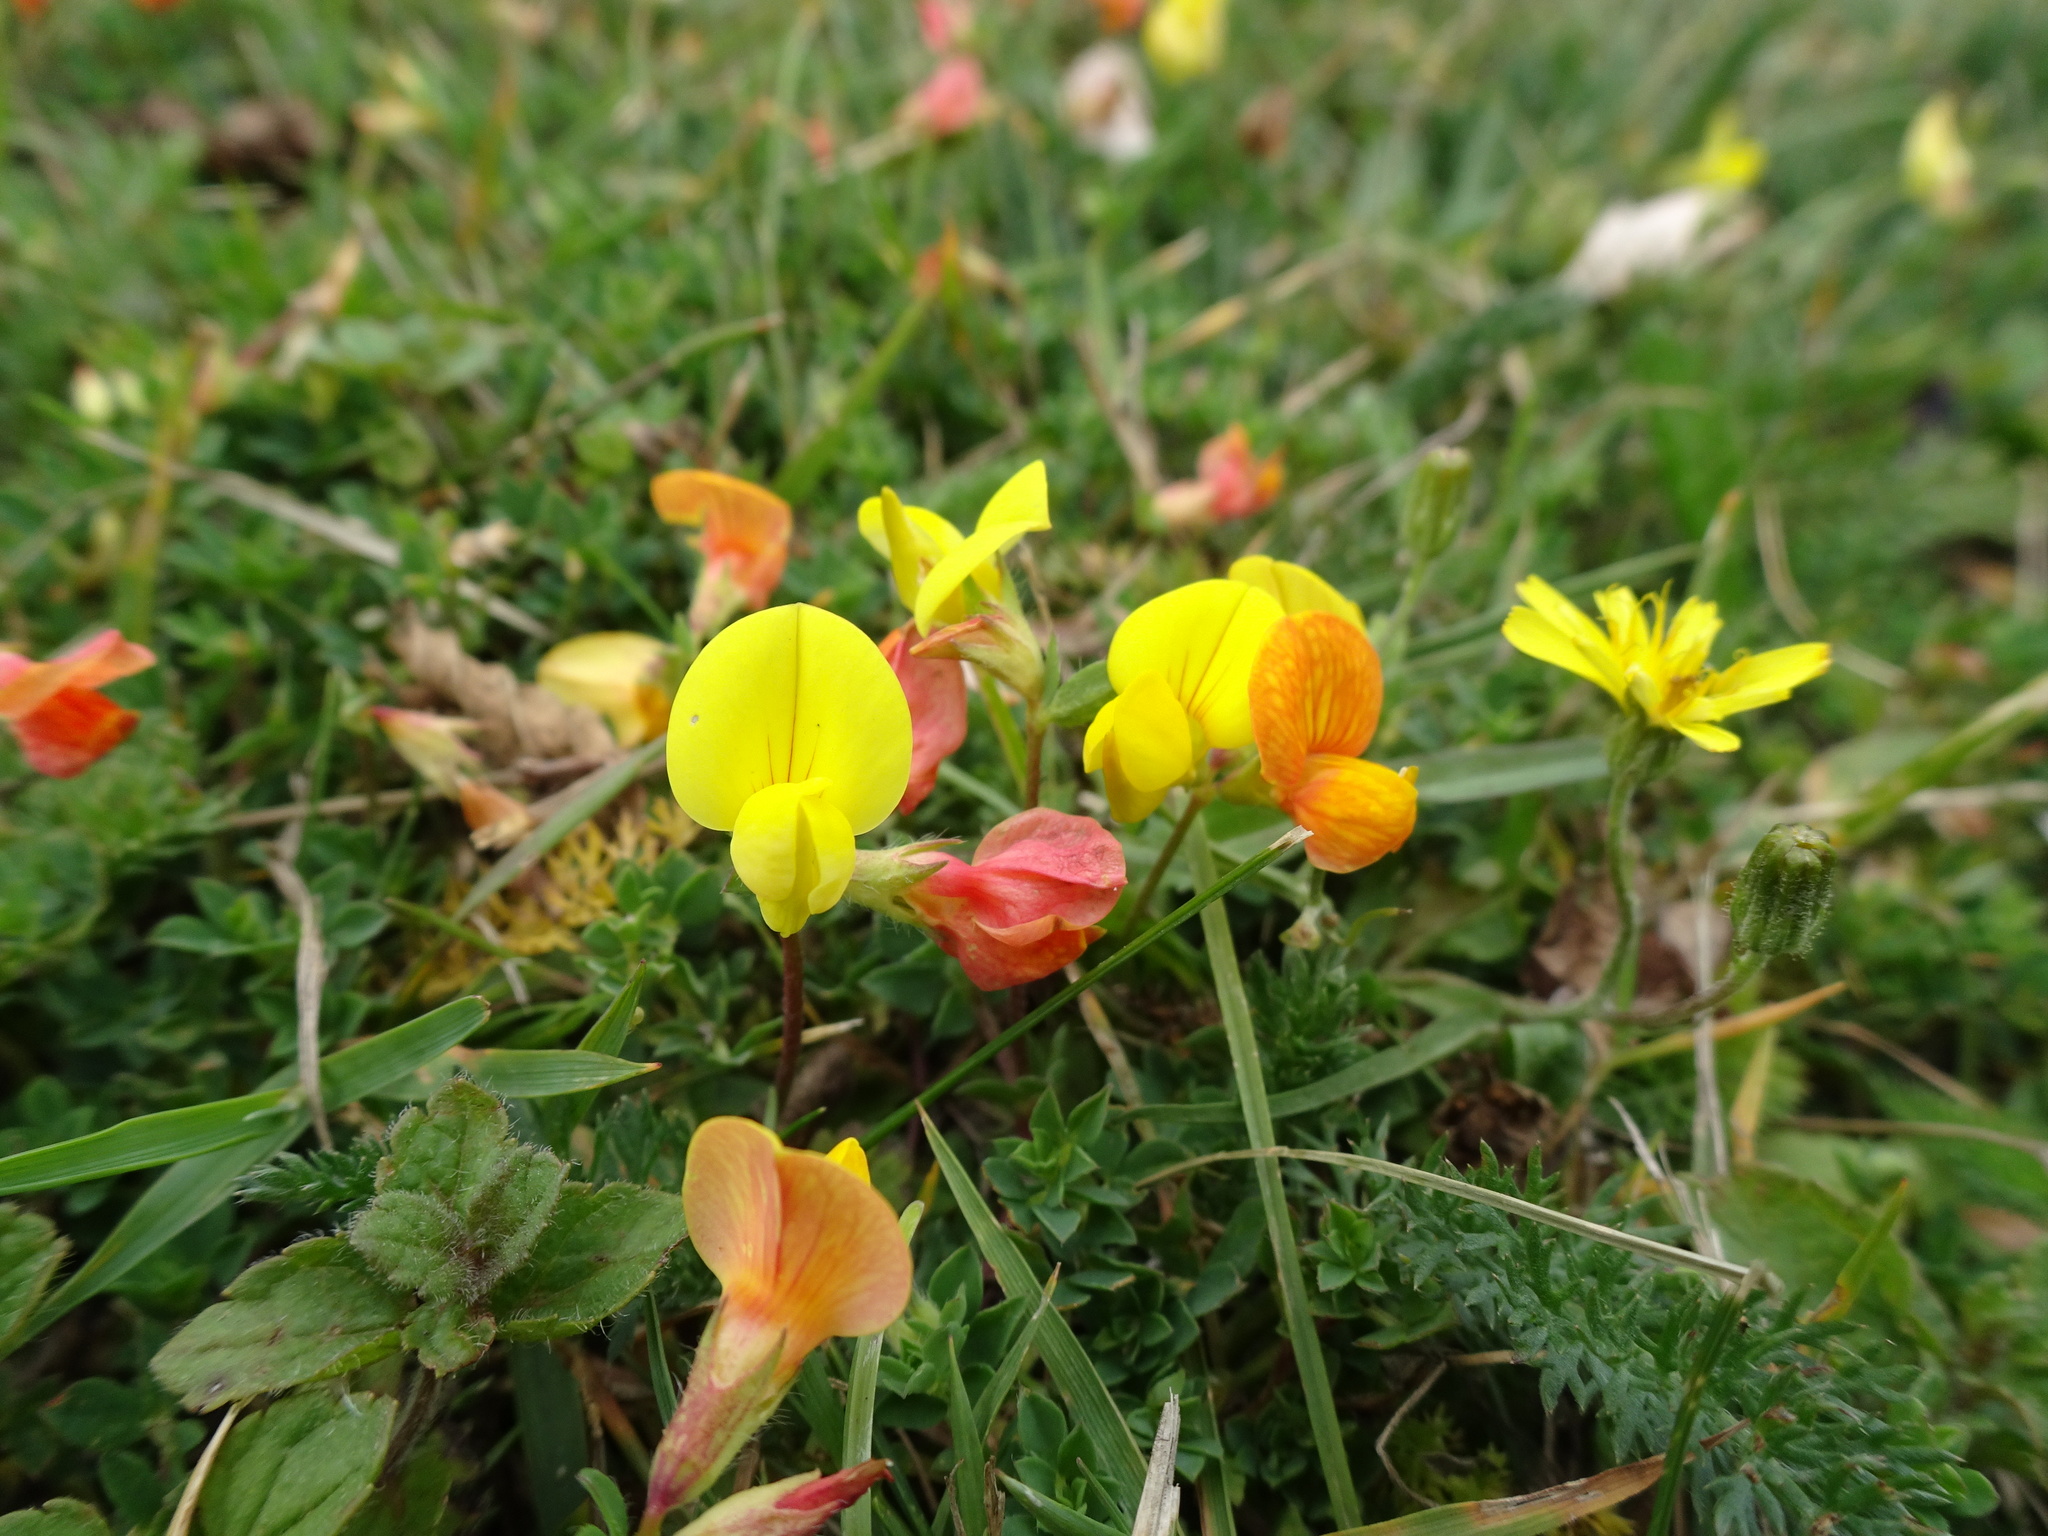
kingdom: Plantae
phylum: Tracheophyta
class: Magnoliopsida
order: Fabales
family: Fabaceae
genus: Lotus
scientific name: Lotus corniculatus
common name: Common bird's-foot-trefoil
